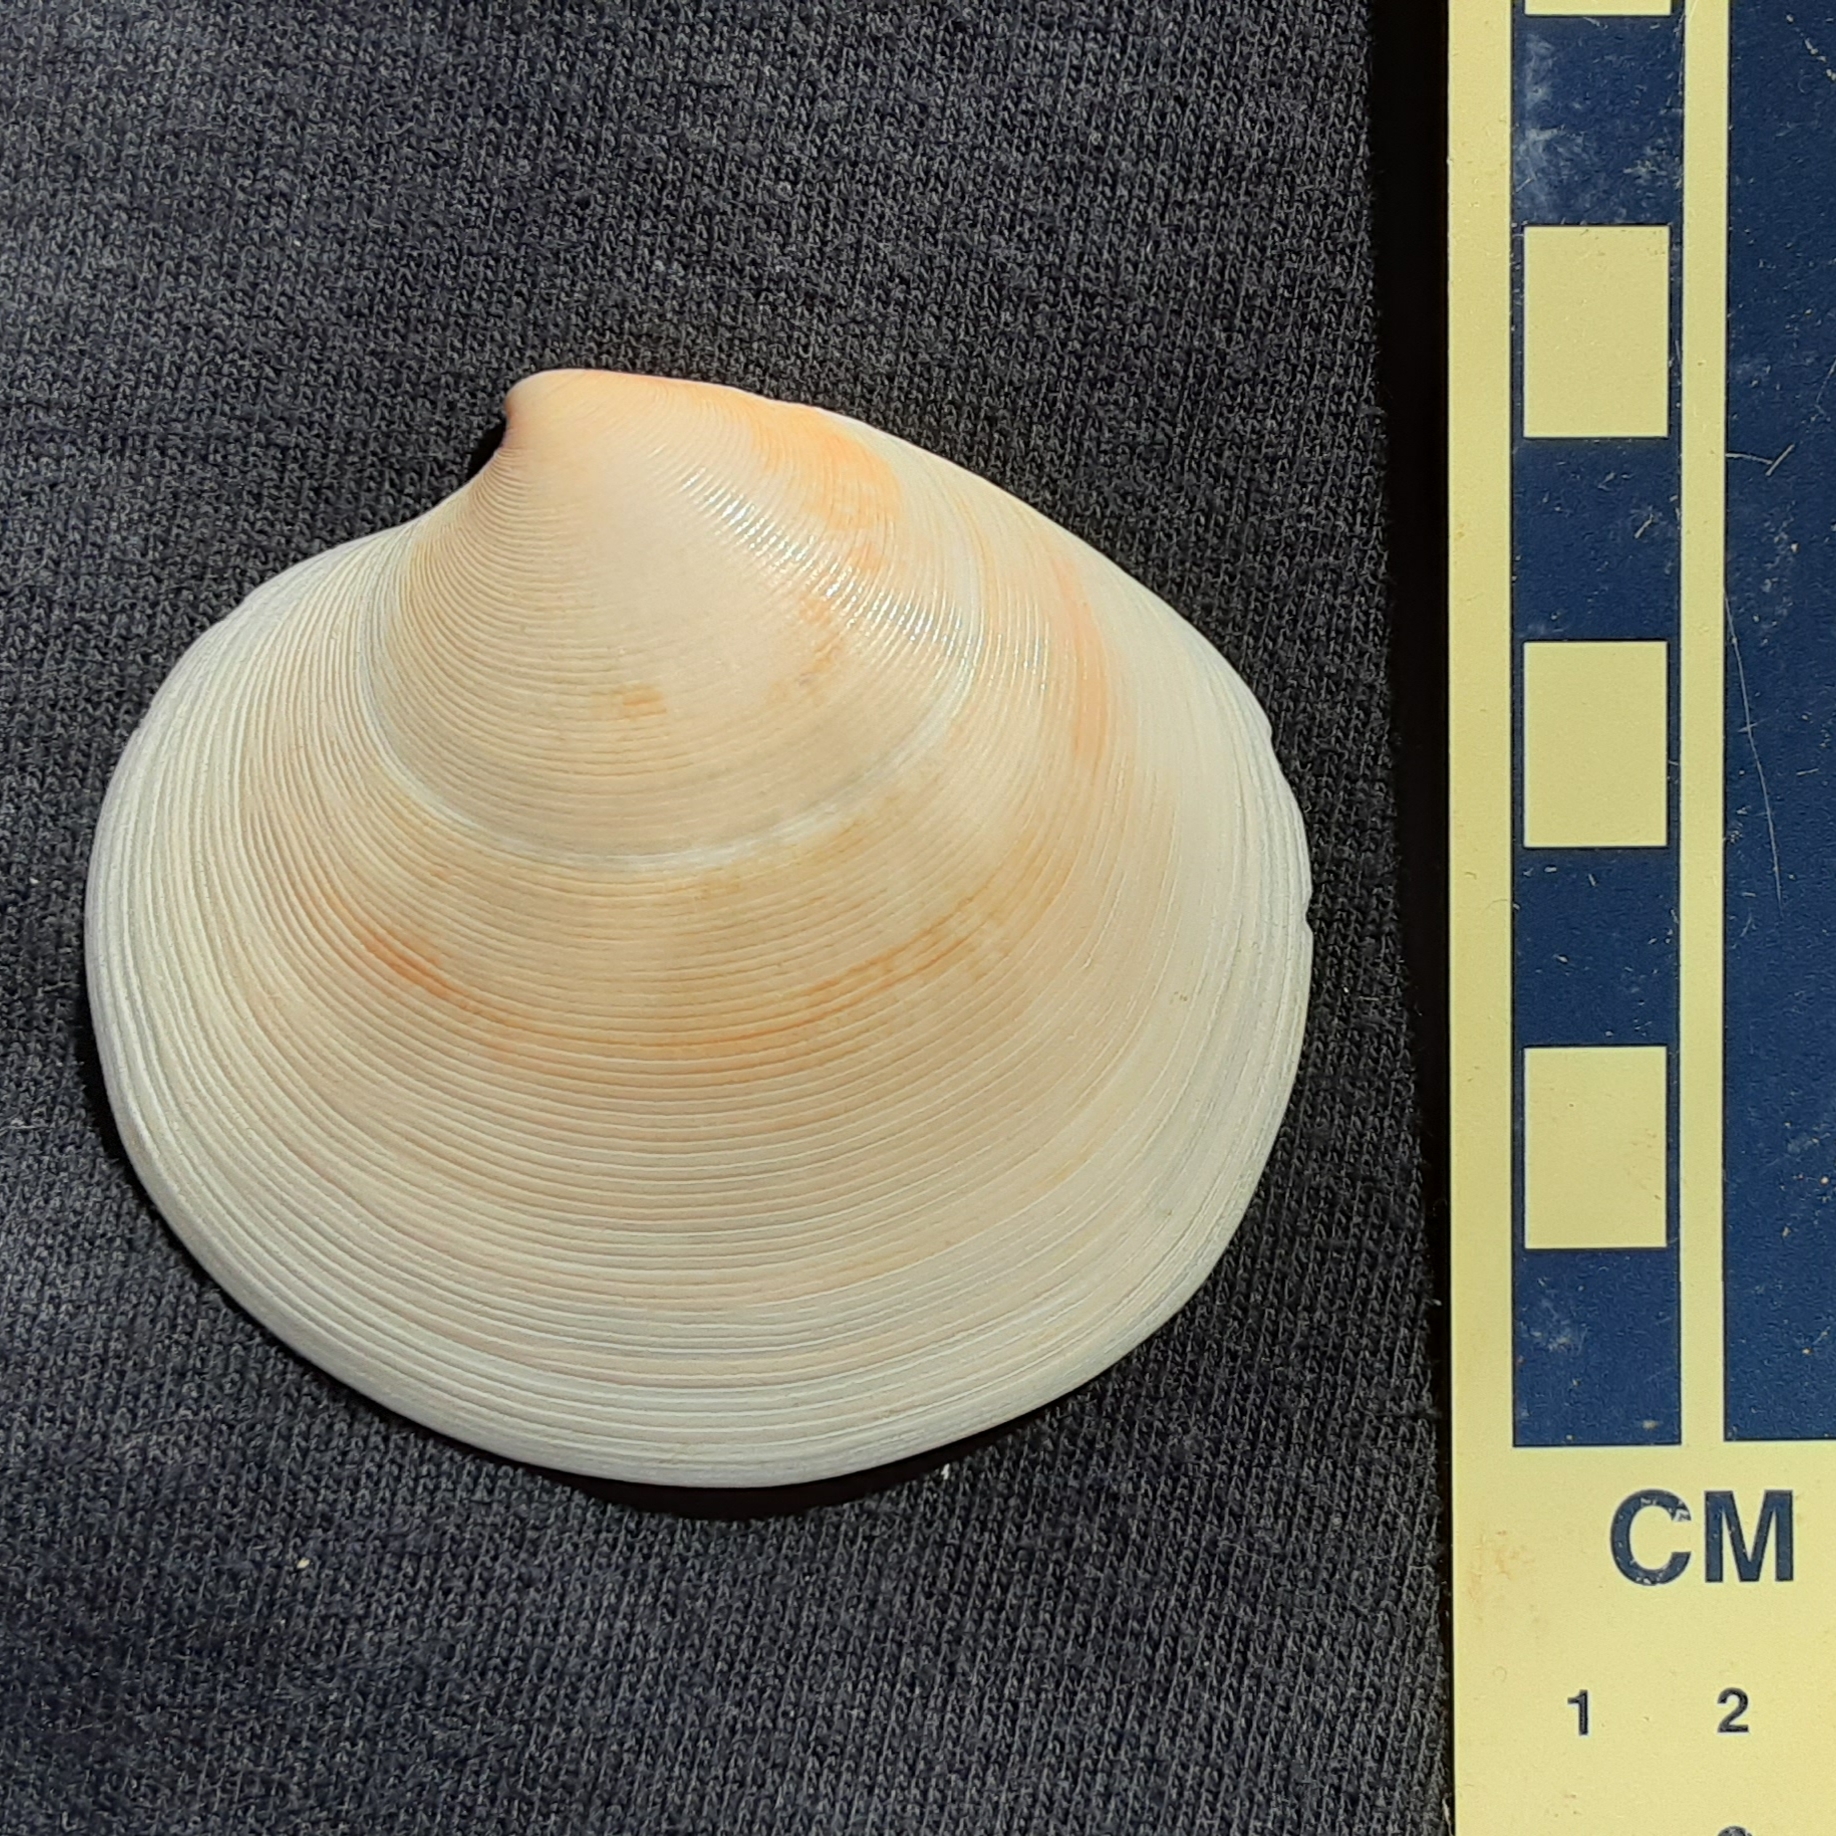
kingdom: Animalia
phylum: Mollusca
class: Bivalvia
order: Venerida
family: Veneridae
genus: Dosinia
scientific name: Dosinia discus
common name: Disk dosinia
